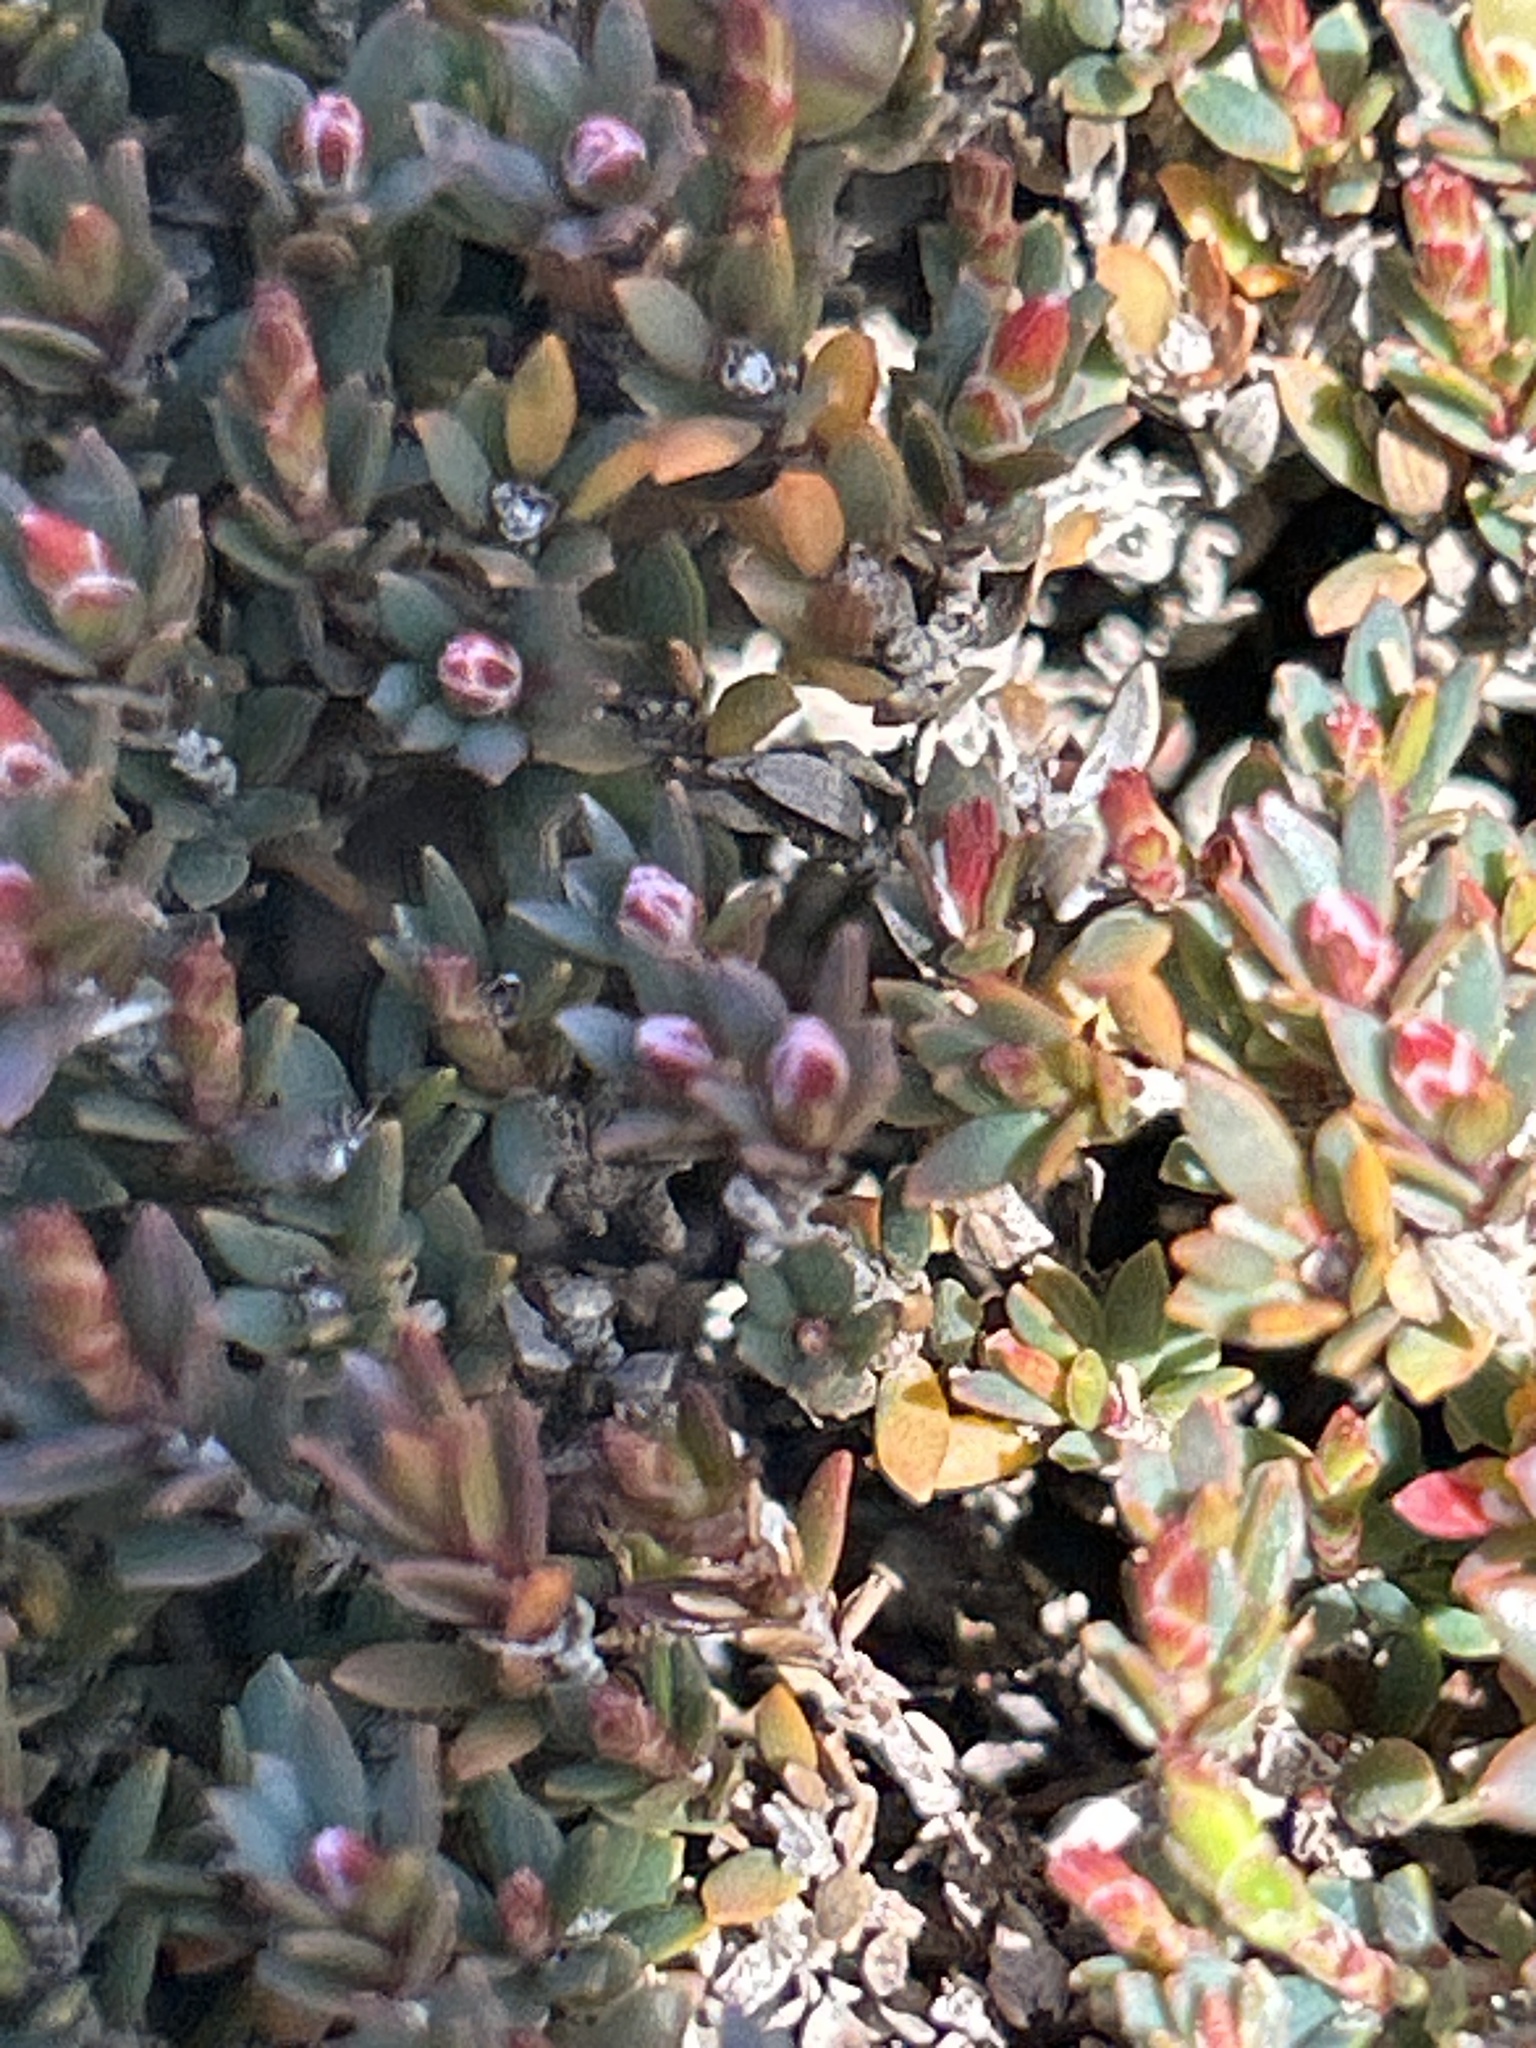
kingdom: Plantae
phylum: Tracheophyta
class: Magnoliopsida
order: Ericales
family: Ericaceae
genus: Pentachondra
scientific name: Pentachondra pumila
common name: Carpet-heath
